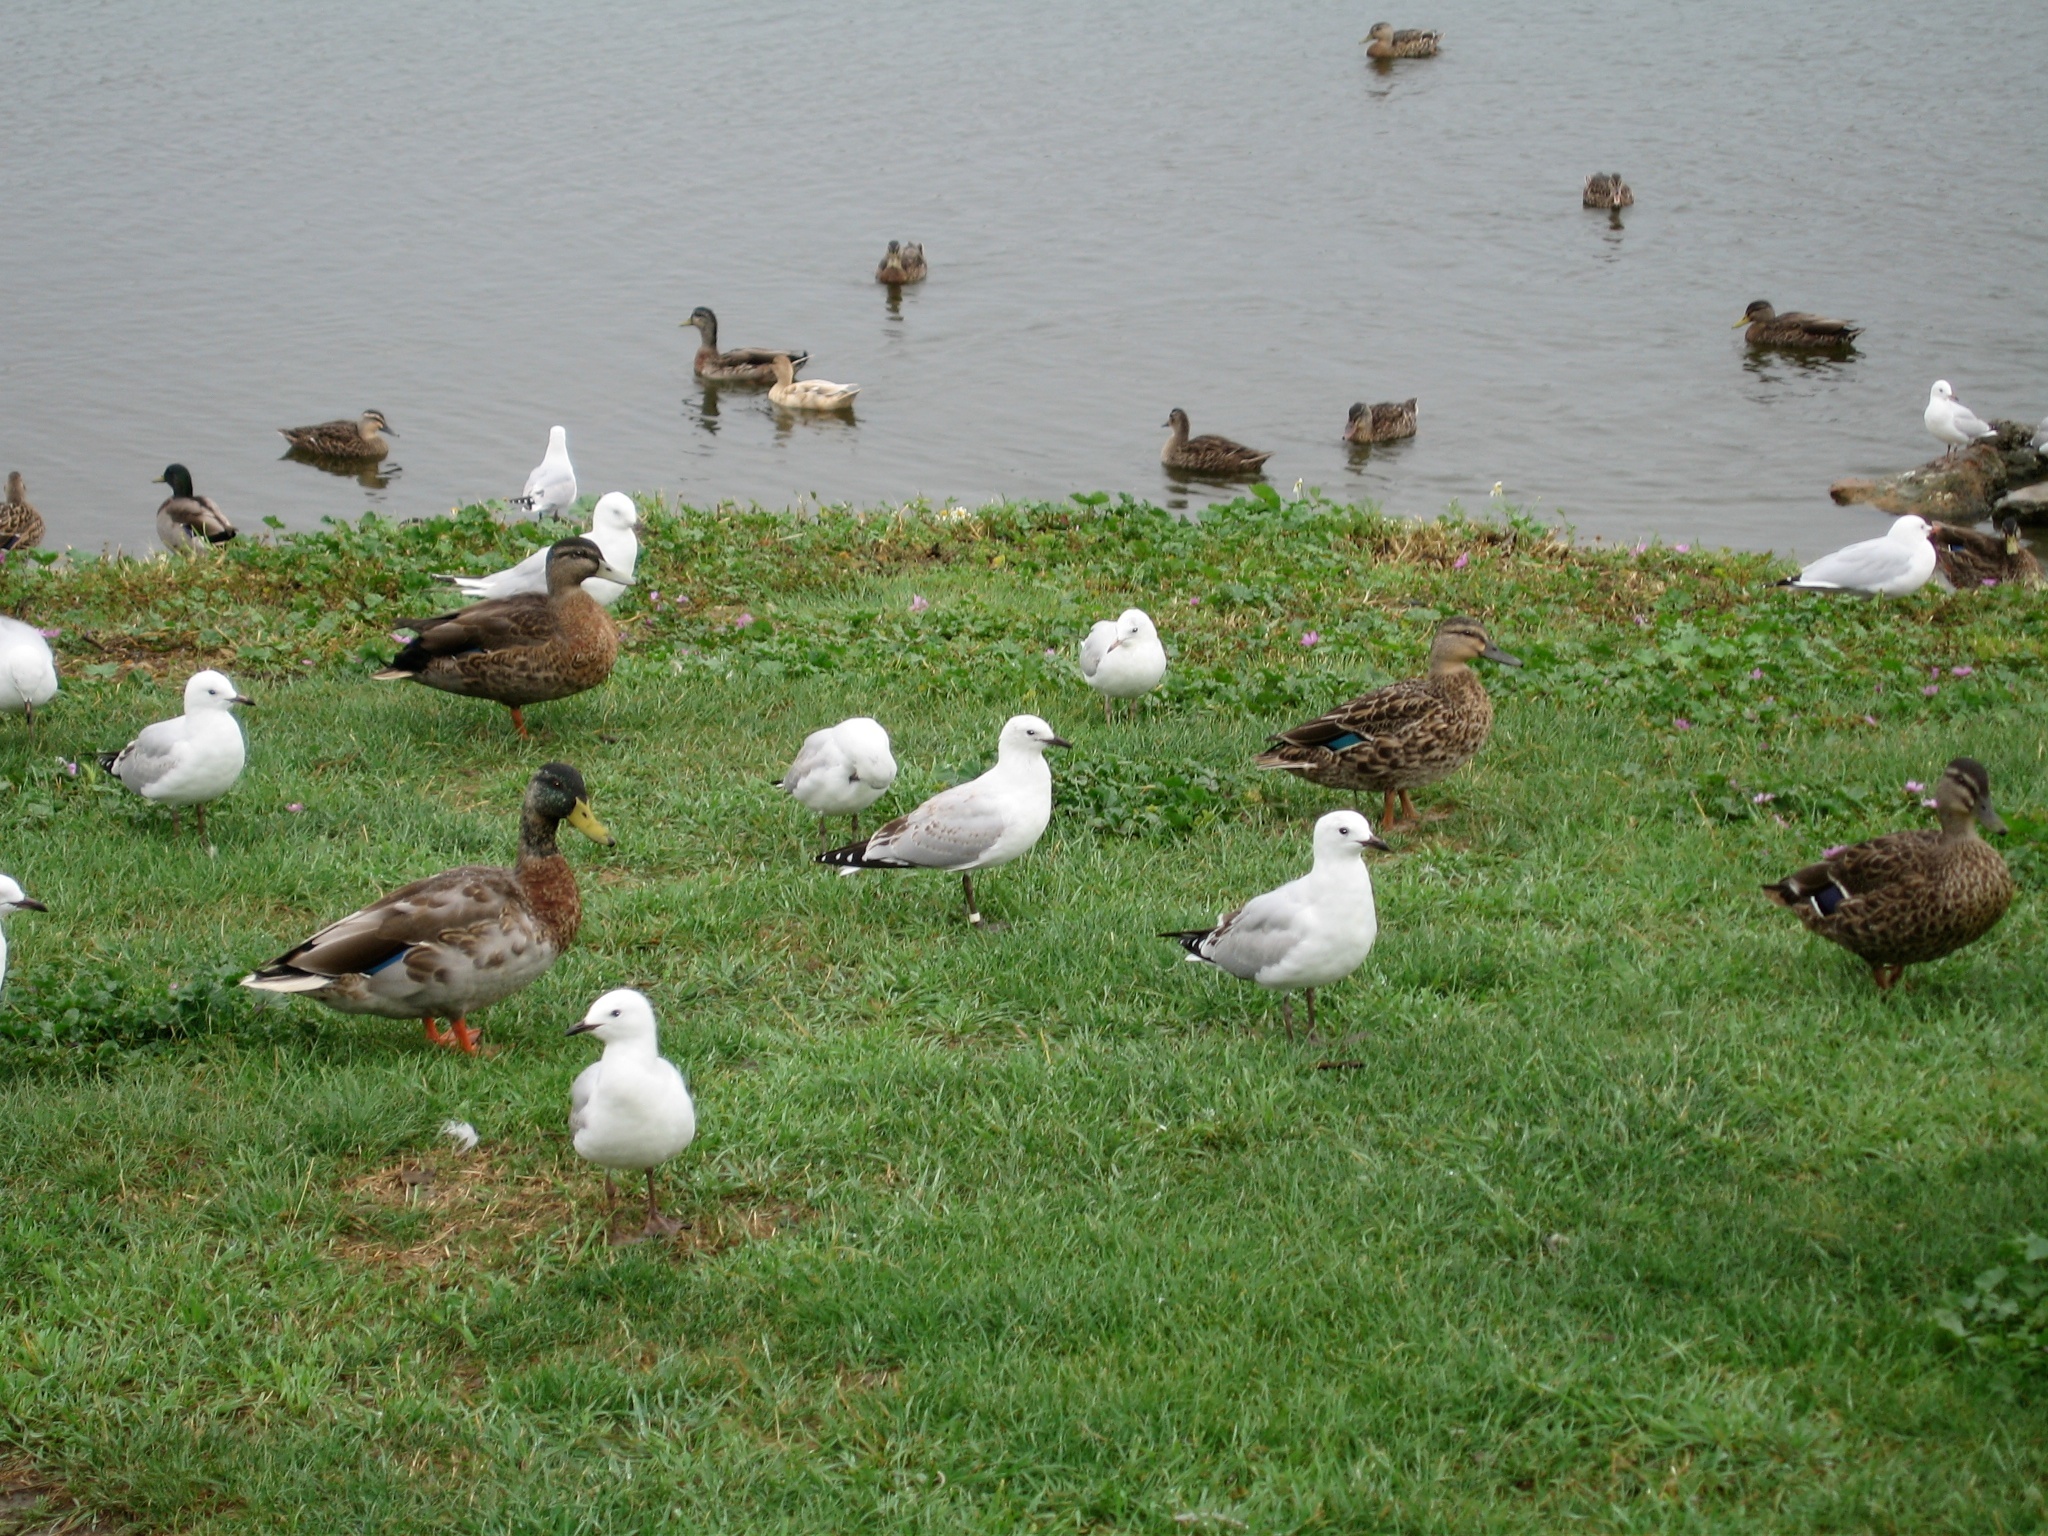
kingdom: Animalia
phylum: Chordata
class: Aves
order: Charadriiformes
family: Laridae
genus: Chroicocephalus
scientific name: Chroicocephalus bulleri
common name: Black-billed gull
